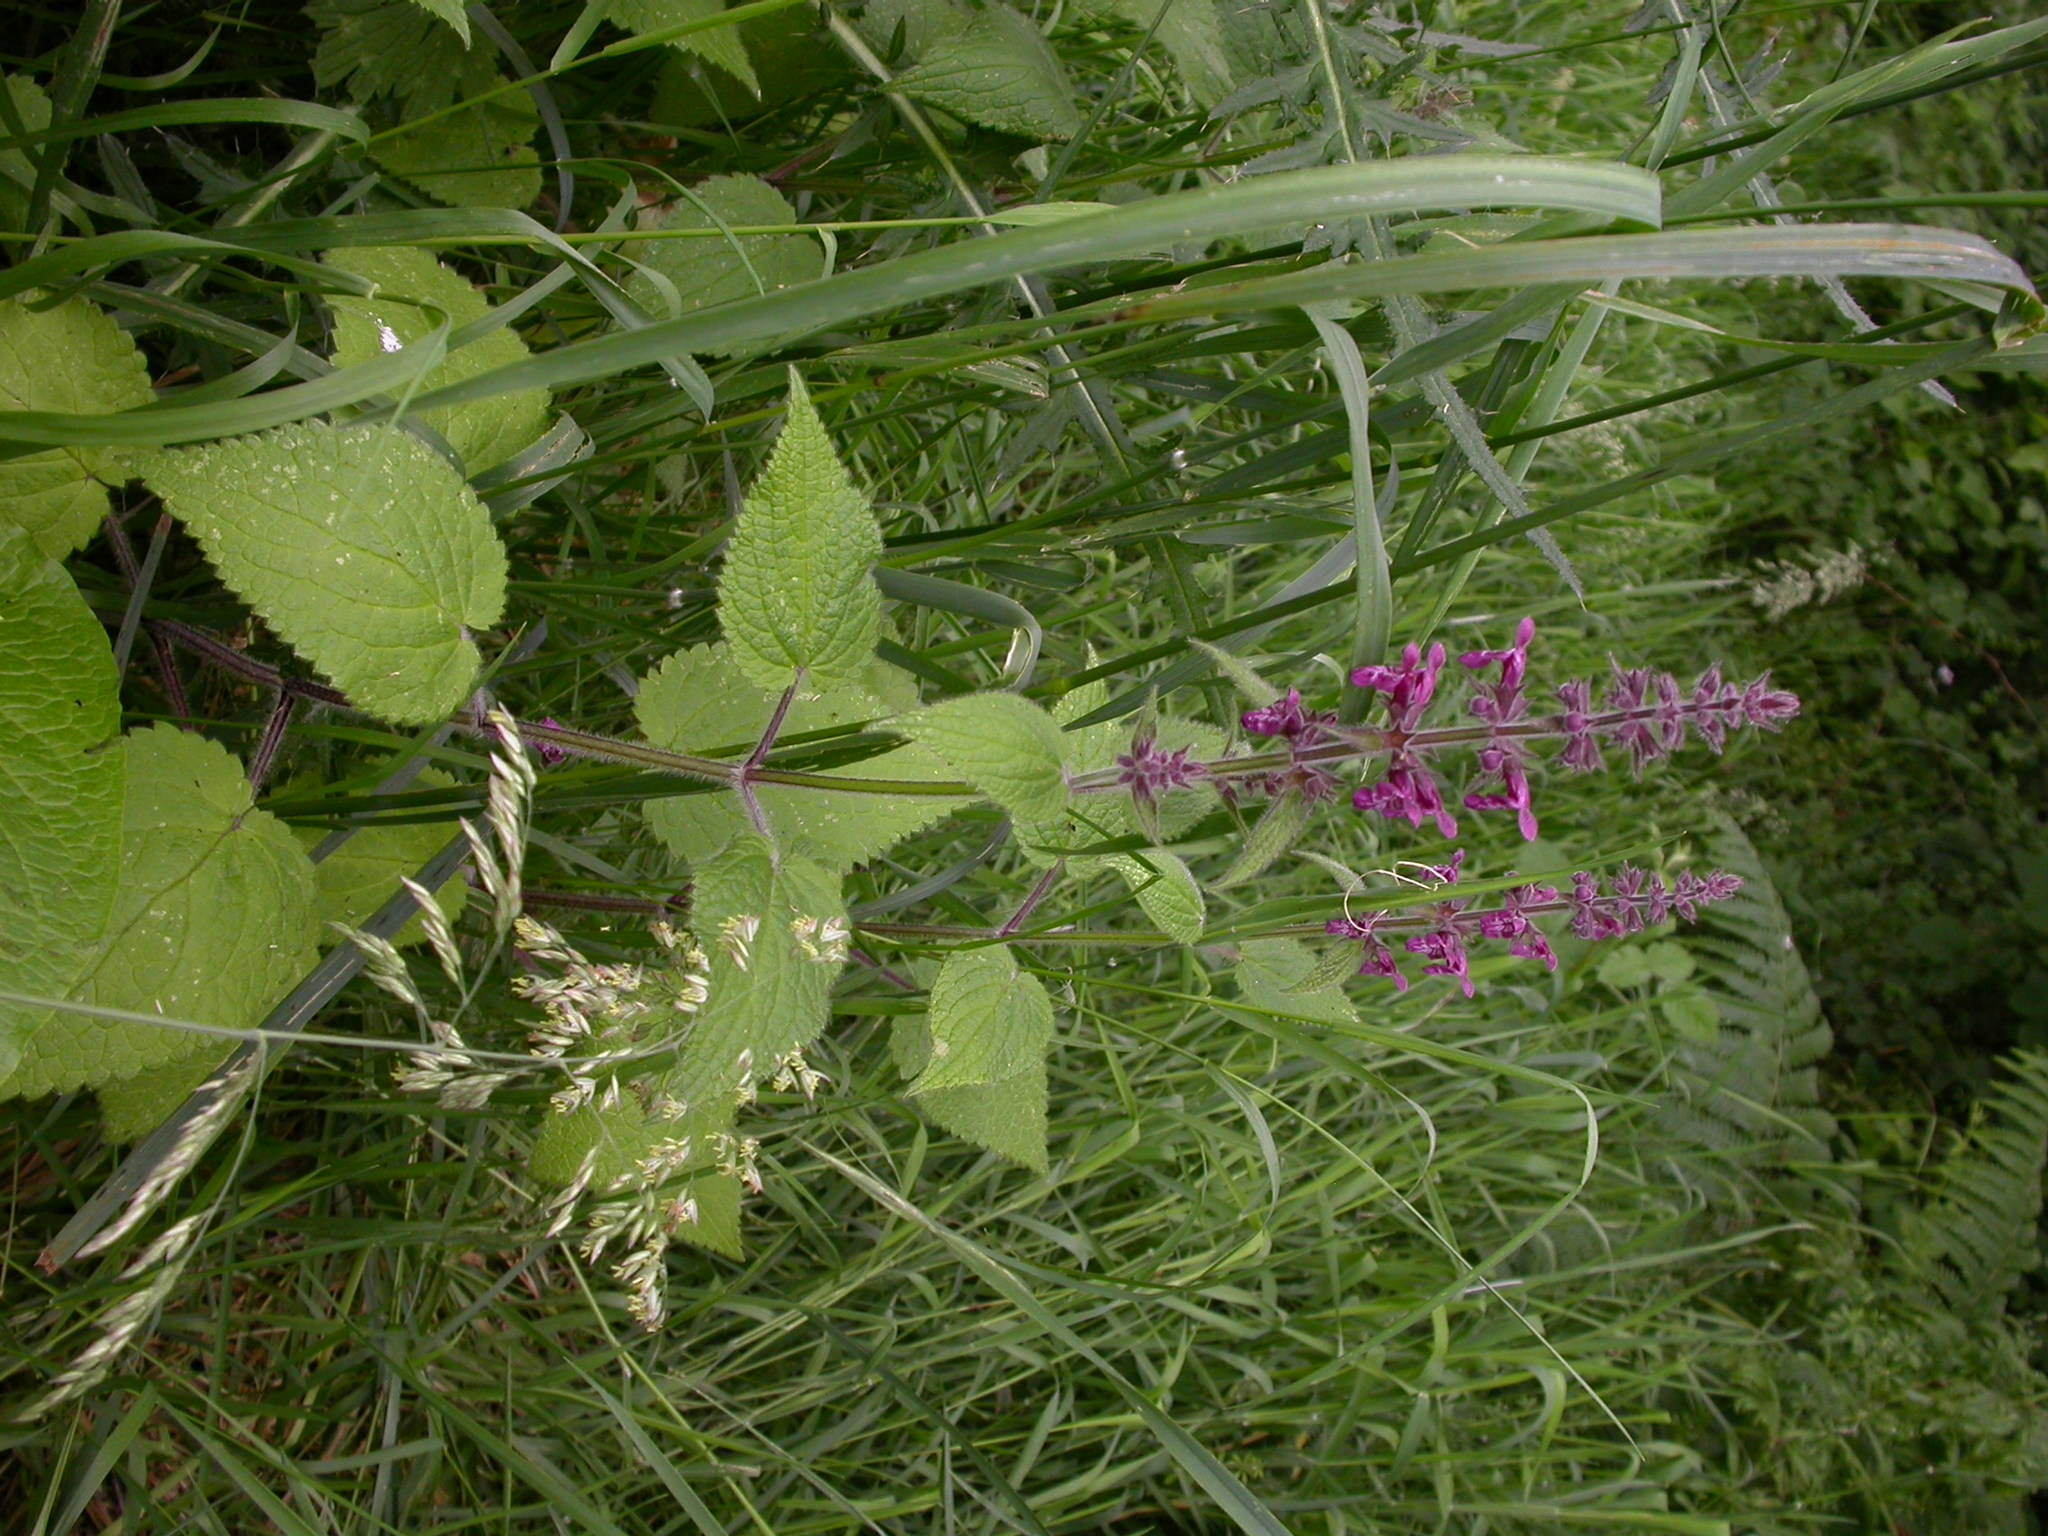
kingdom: Plantae
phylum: Tracheophyta
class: Magnoliopsida
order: Lamiales
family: Lamiaceae
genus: Stachys
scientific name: Stachys sylvatica
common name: Hedge woundwort
